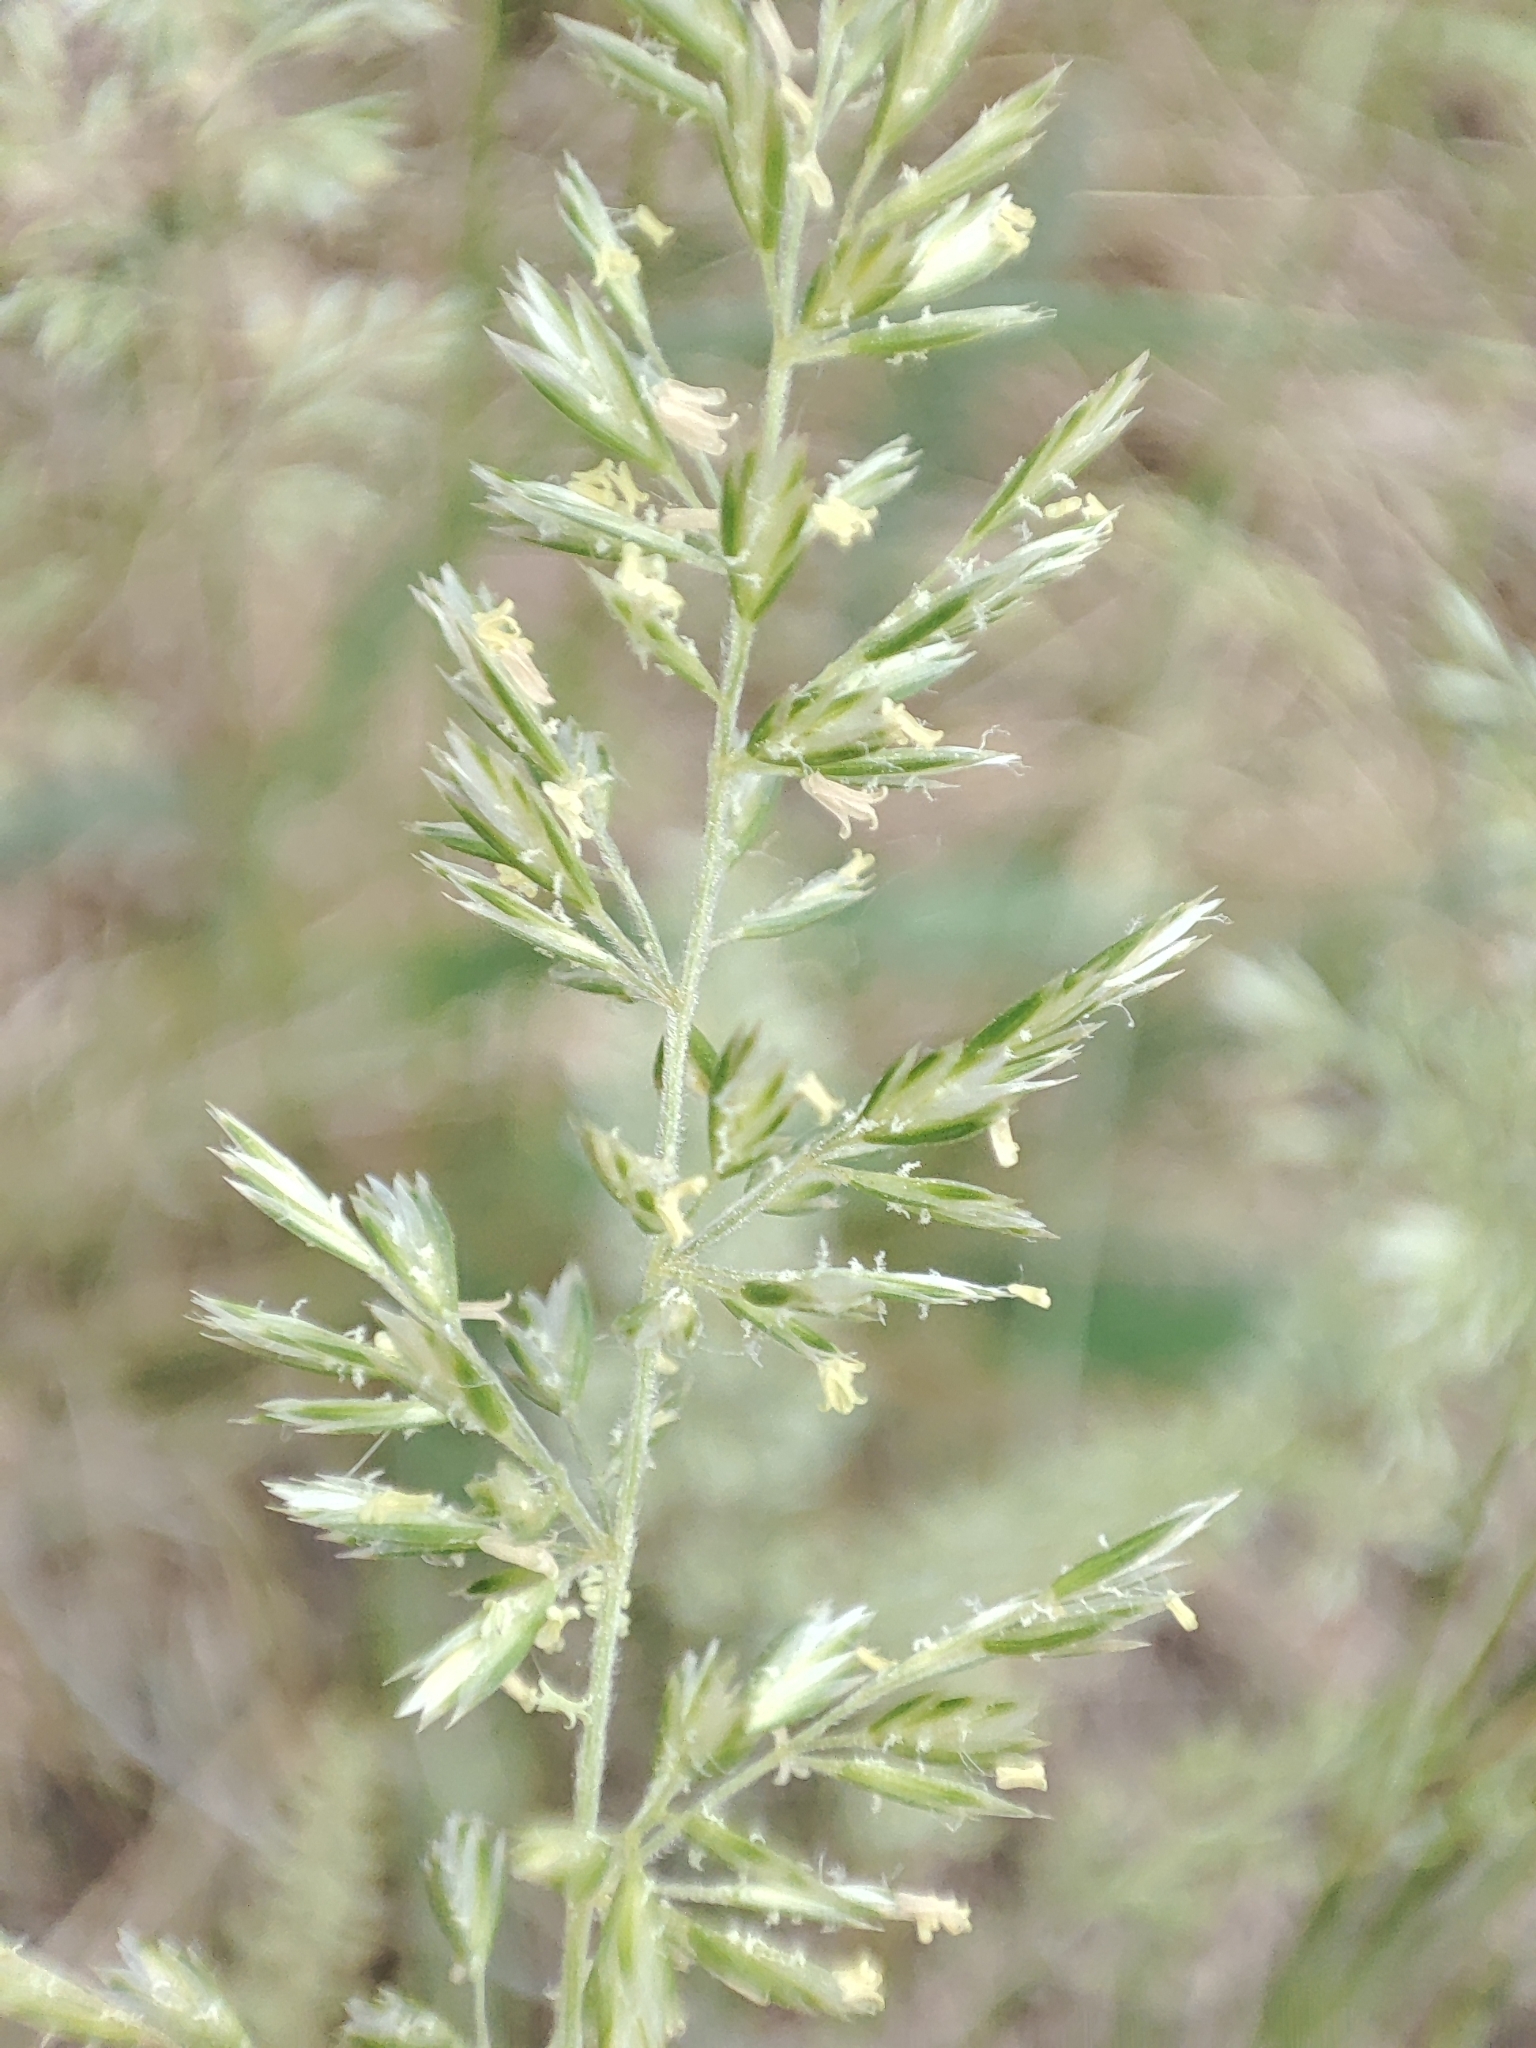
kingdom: Plantae
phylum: Tracheophyta
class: Liliopsida
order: Poales
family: Poaceae
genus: Koeleria
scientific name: Koeleria macrantha
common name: Crested hair-grass
